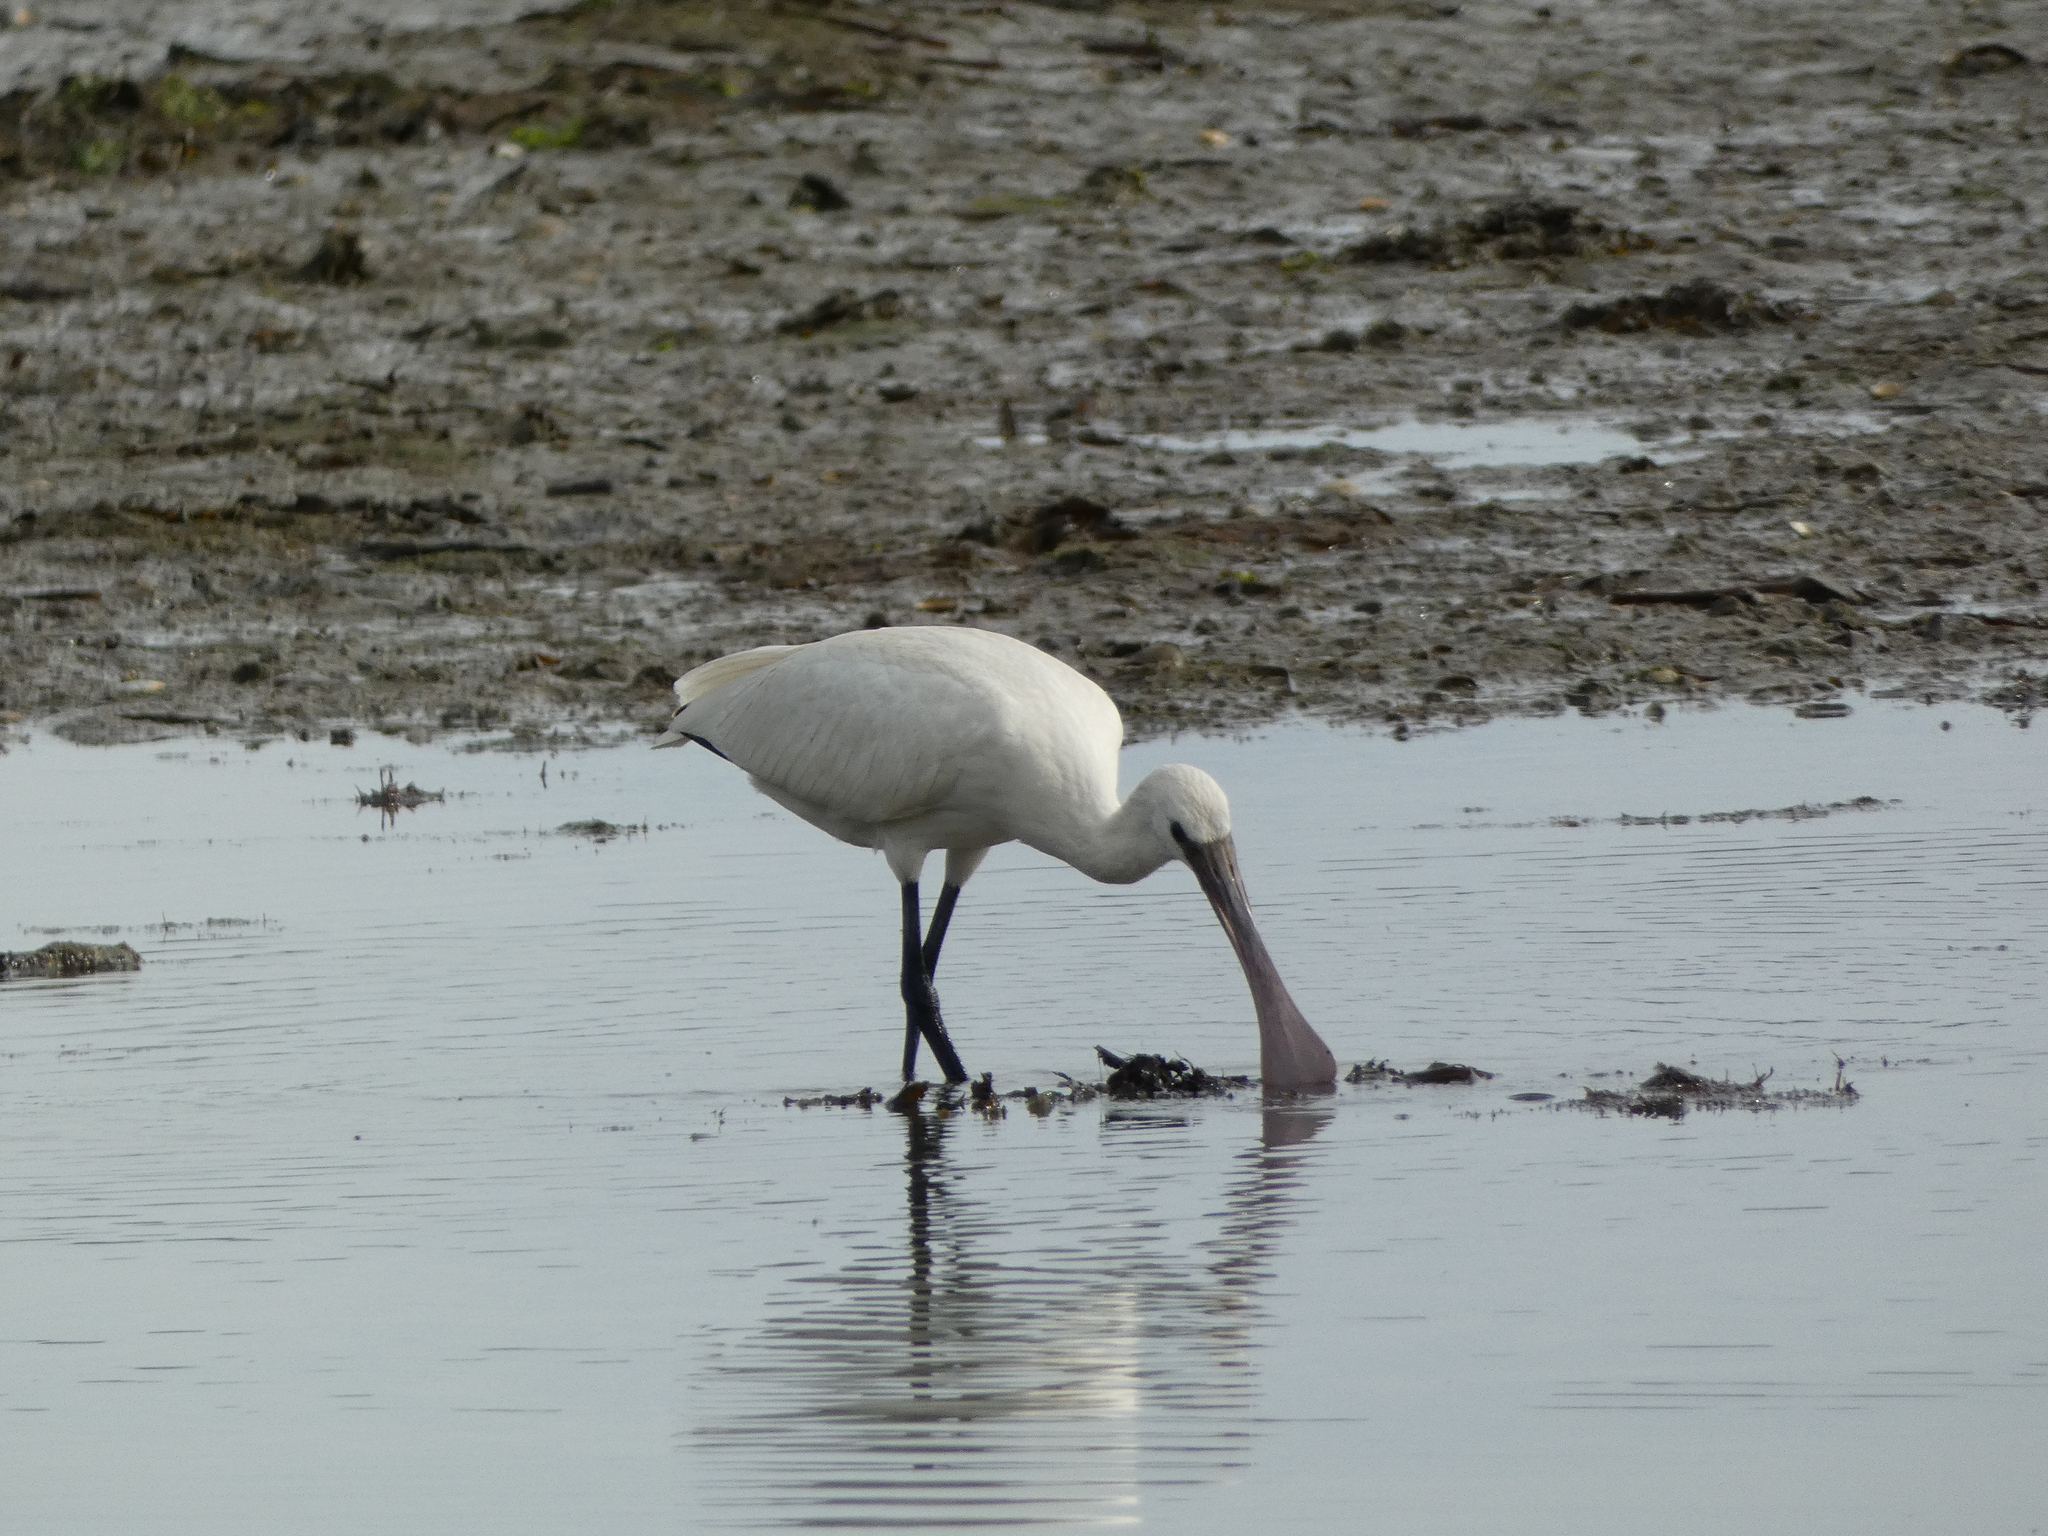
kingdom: Animalia
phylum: Chordata
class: Aves
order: Pelecaniformes
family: Threskiornithidae
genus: Platalea
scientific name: Platalea leucorodia
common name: Eurasian spoonbill
